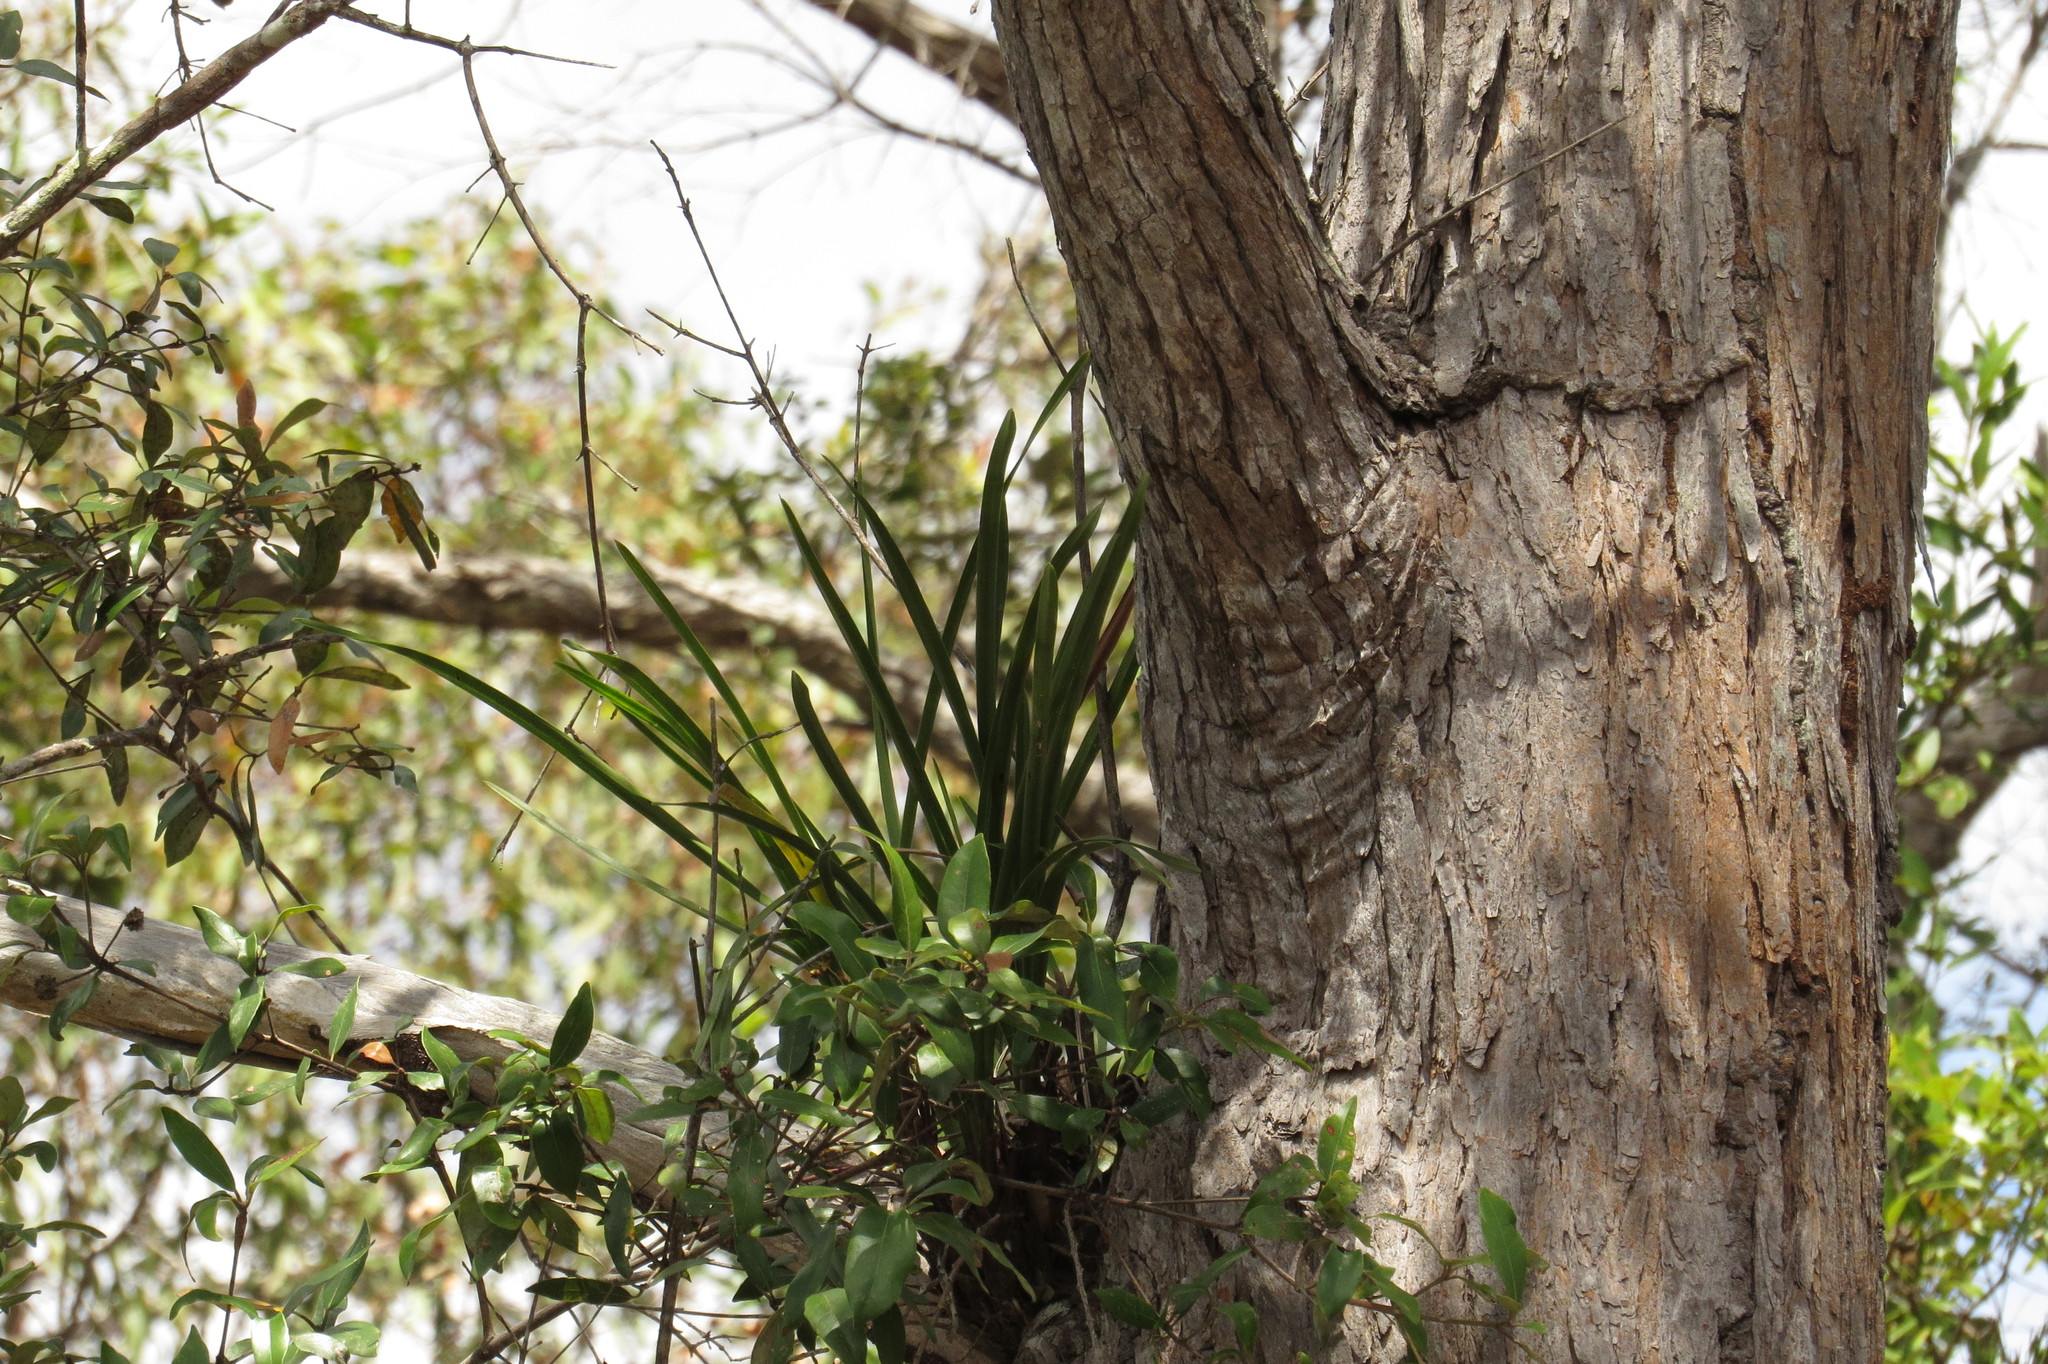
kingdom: Plantae
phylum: Tracheophyta
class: Liliopsida
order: Asparagales
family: Orchidaceae
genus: Cymbidium
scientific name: Cymbidium suave
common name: Snake orchid
